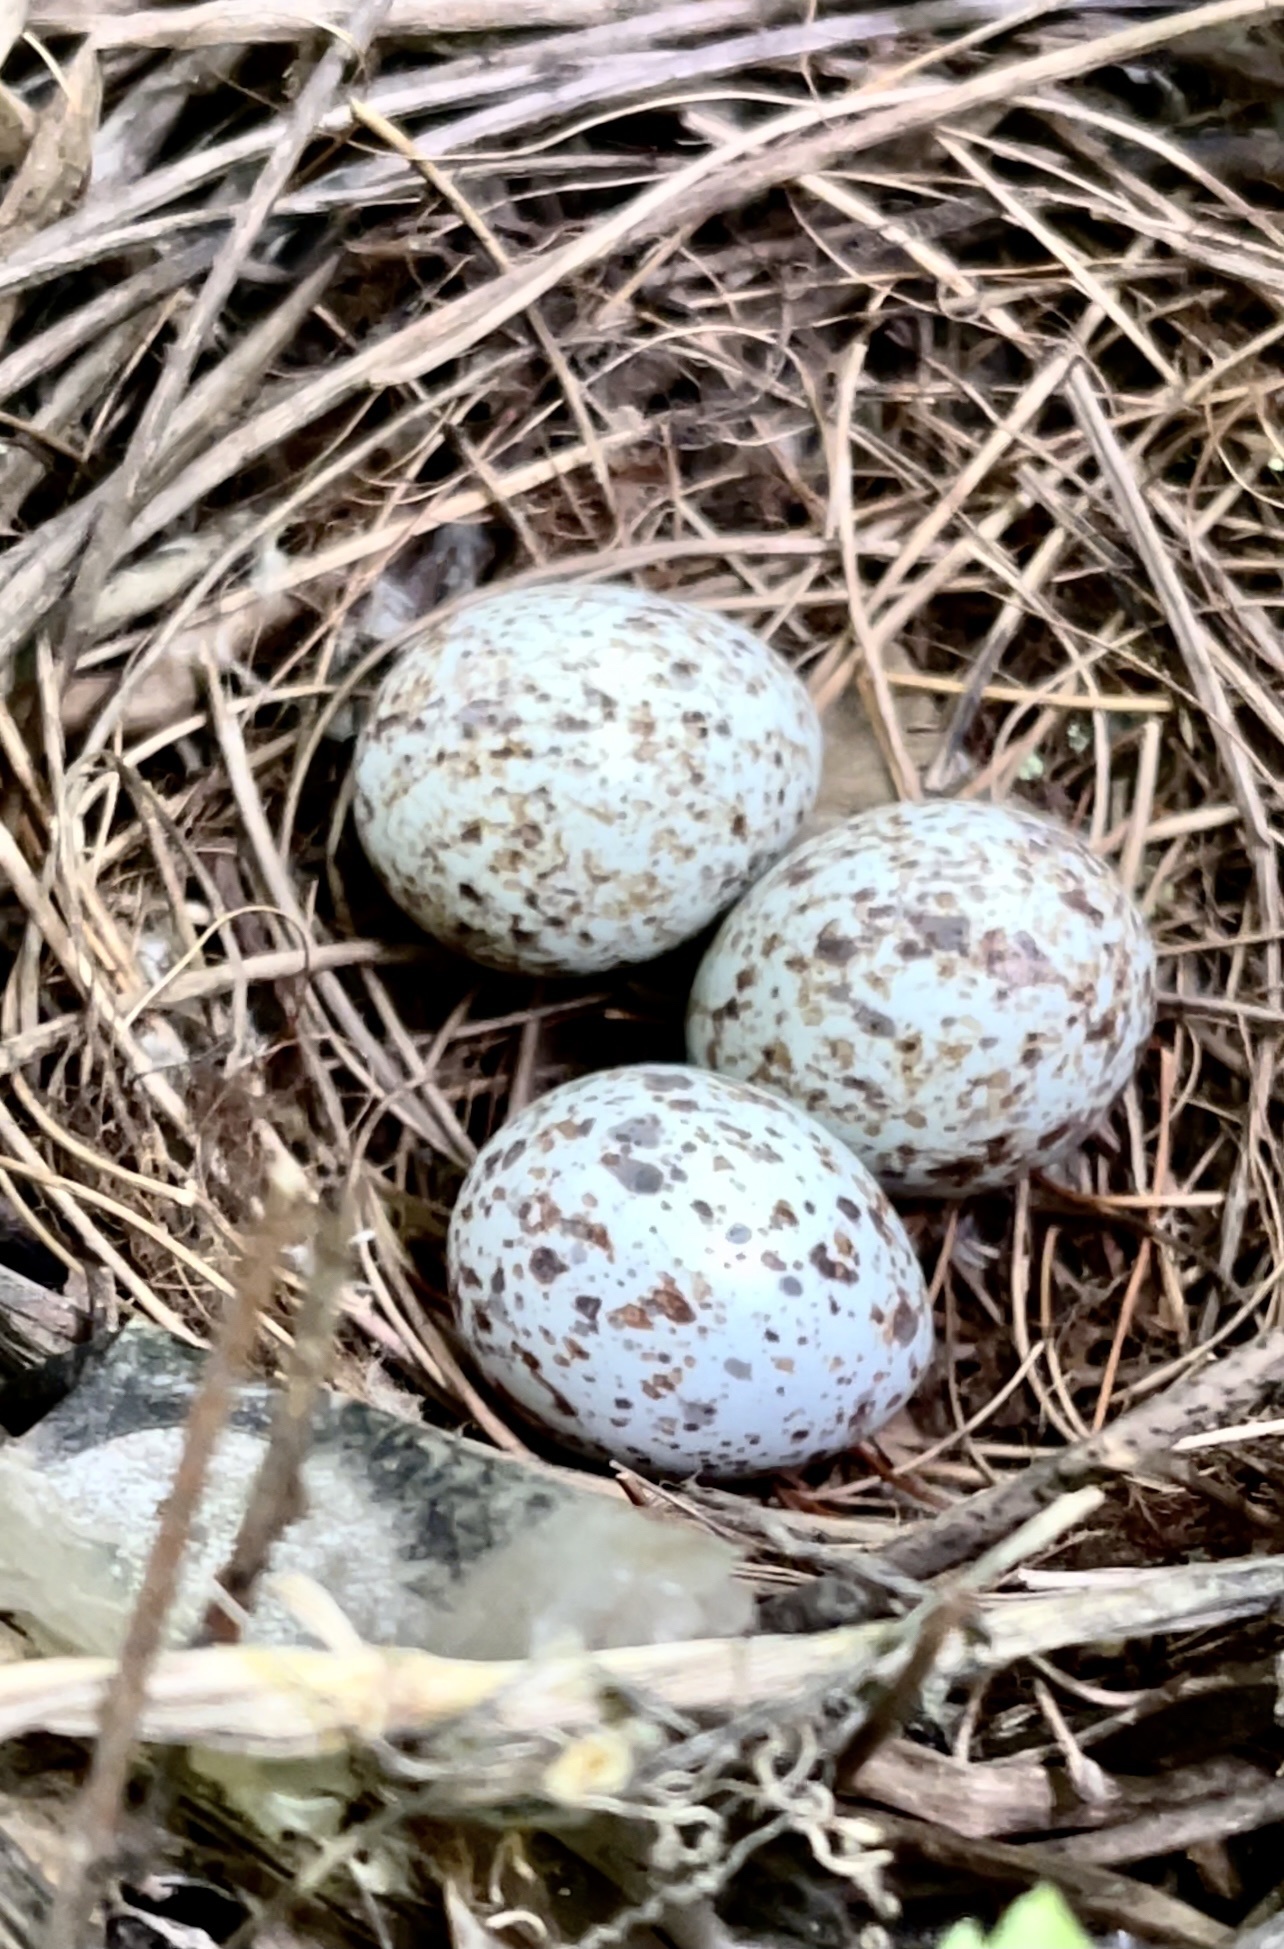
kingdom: Animalia
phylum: Chordata
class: Aves
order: Passeriformes
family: Cardinalidae
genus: Cardinalis
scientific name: Cardinalis cardinalis
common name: Northern cardinal
